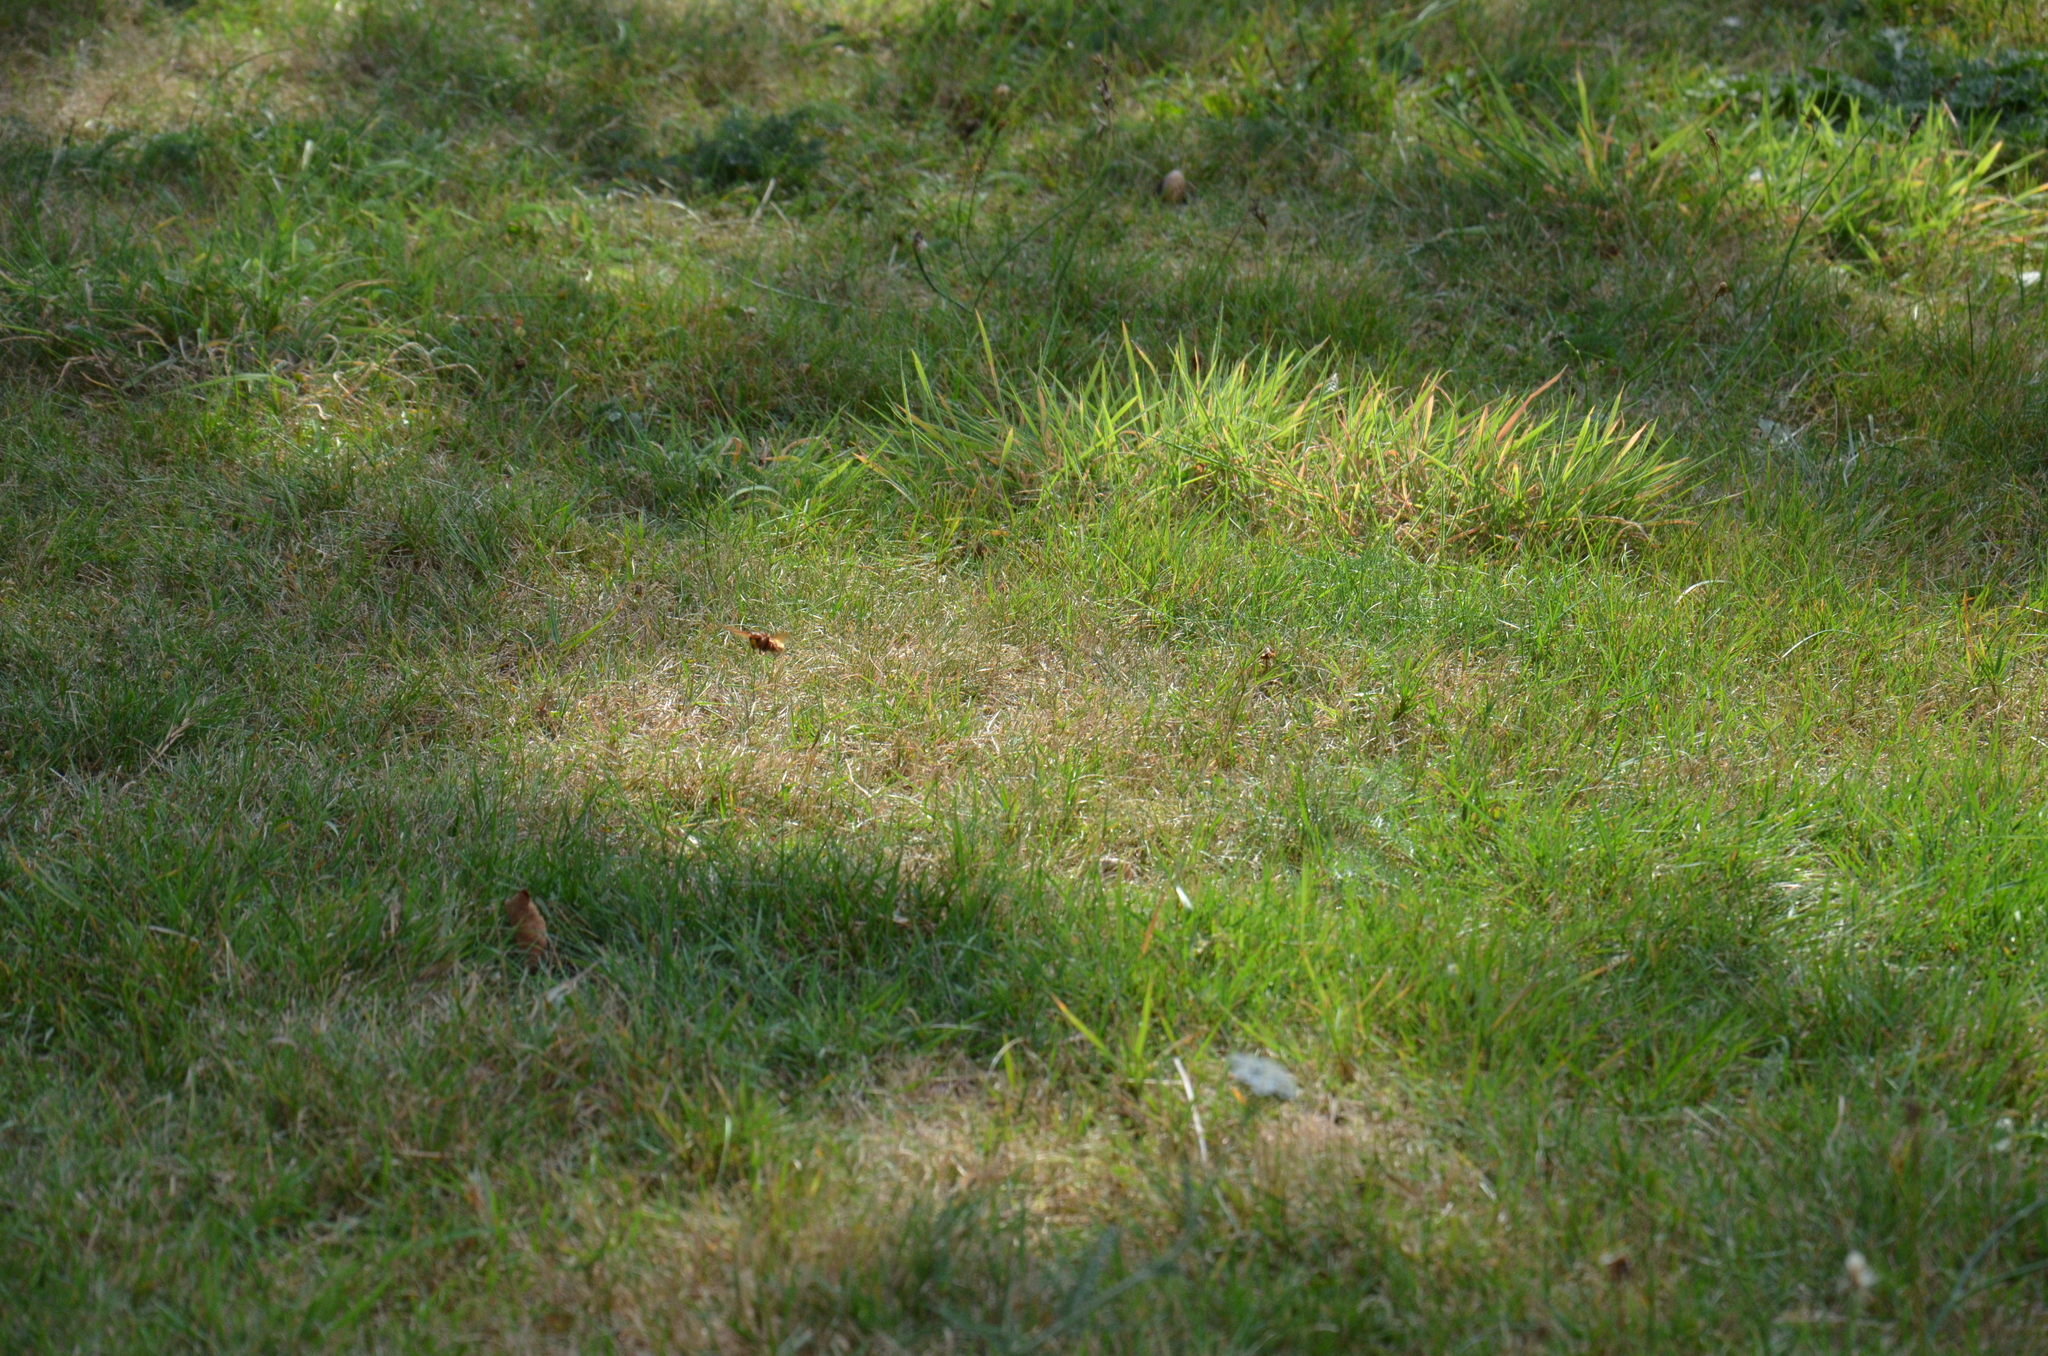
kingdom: Animalia
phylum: Arthropoda
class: Insecta
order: Hymenoptera
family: Vespidae
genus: Vespa
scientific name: Vespa crabro
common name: Hornet
